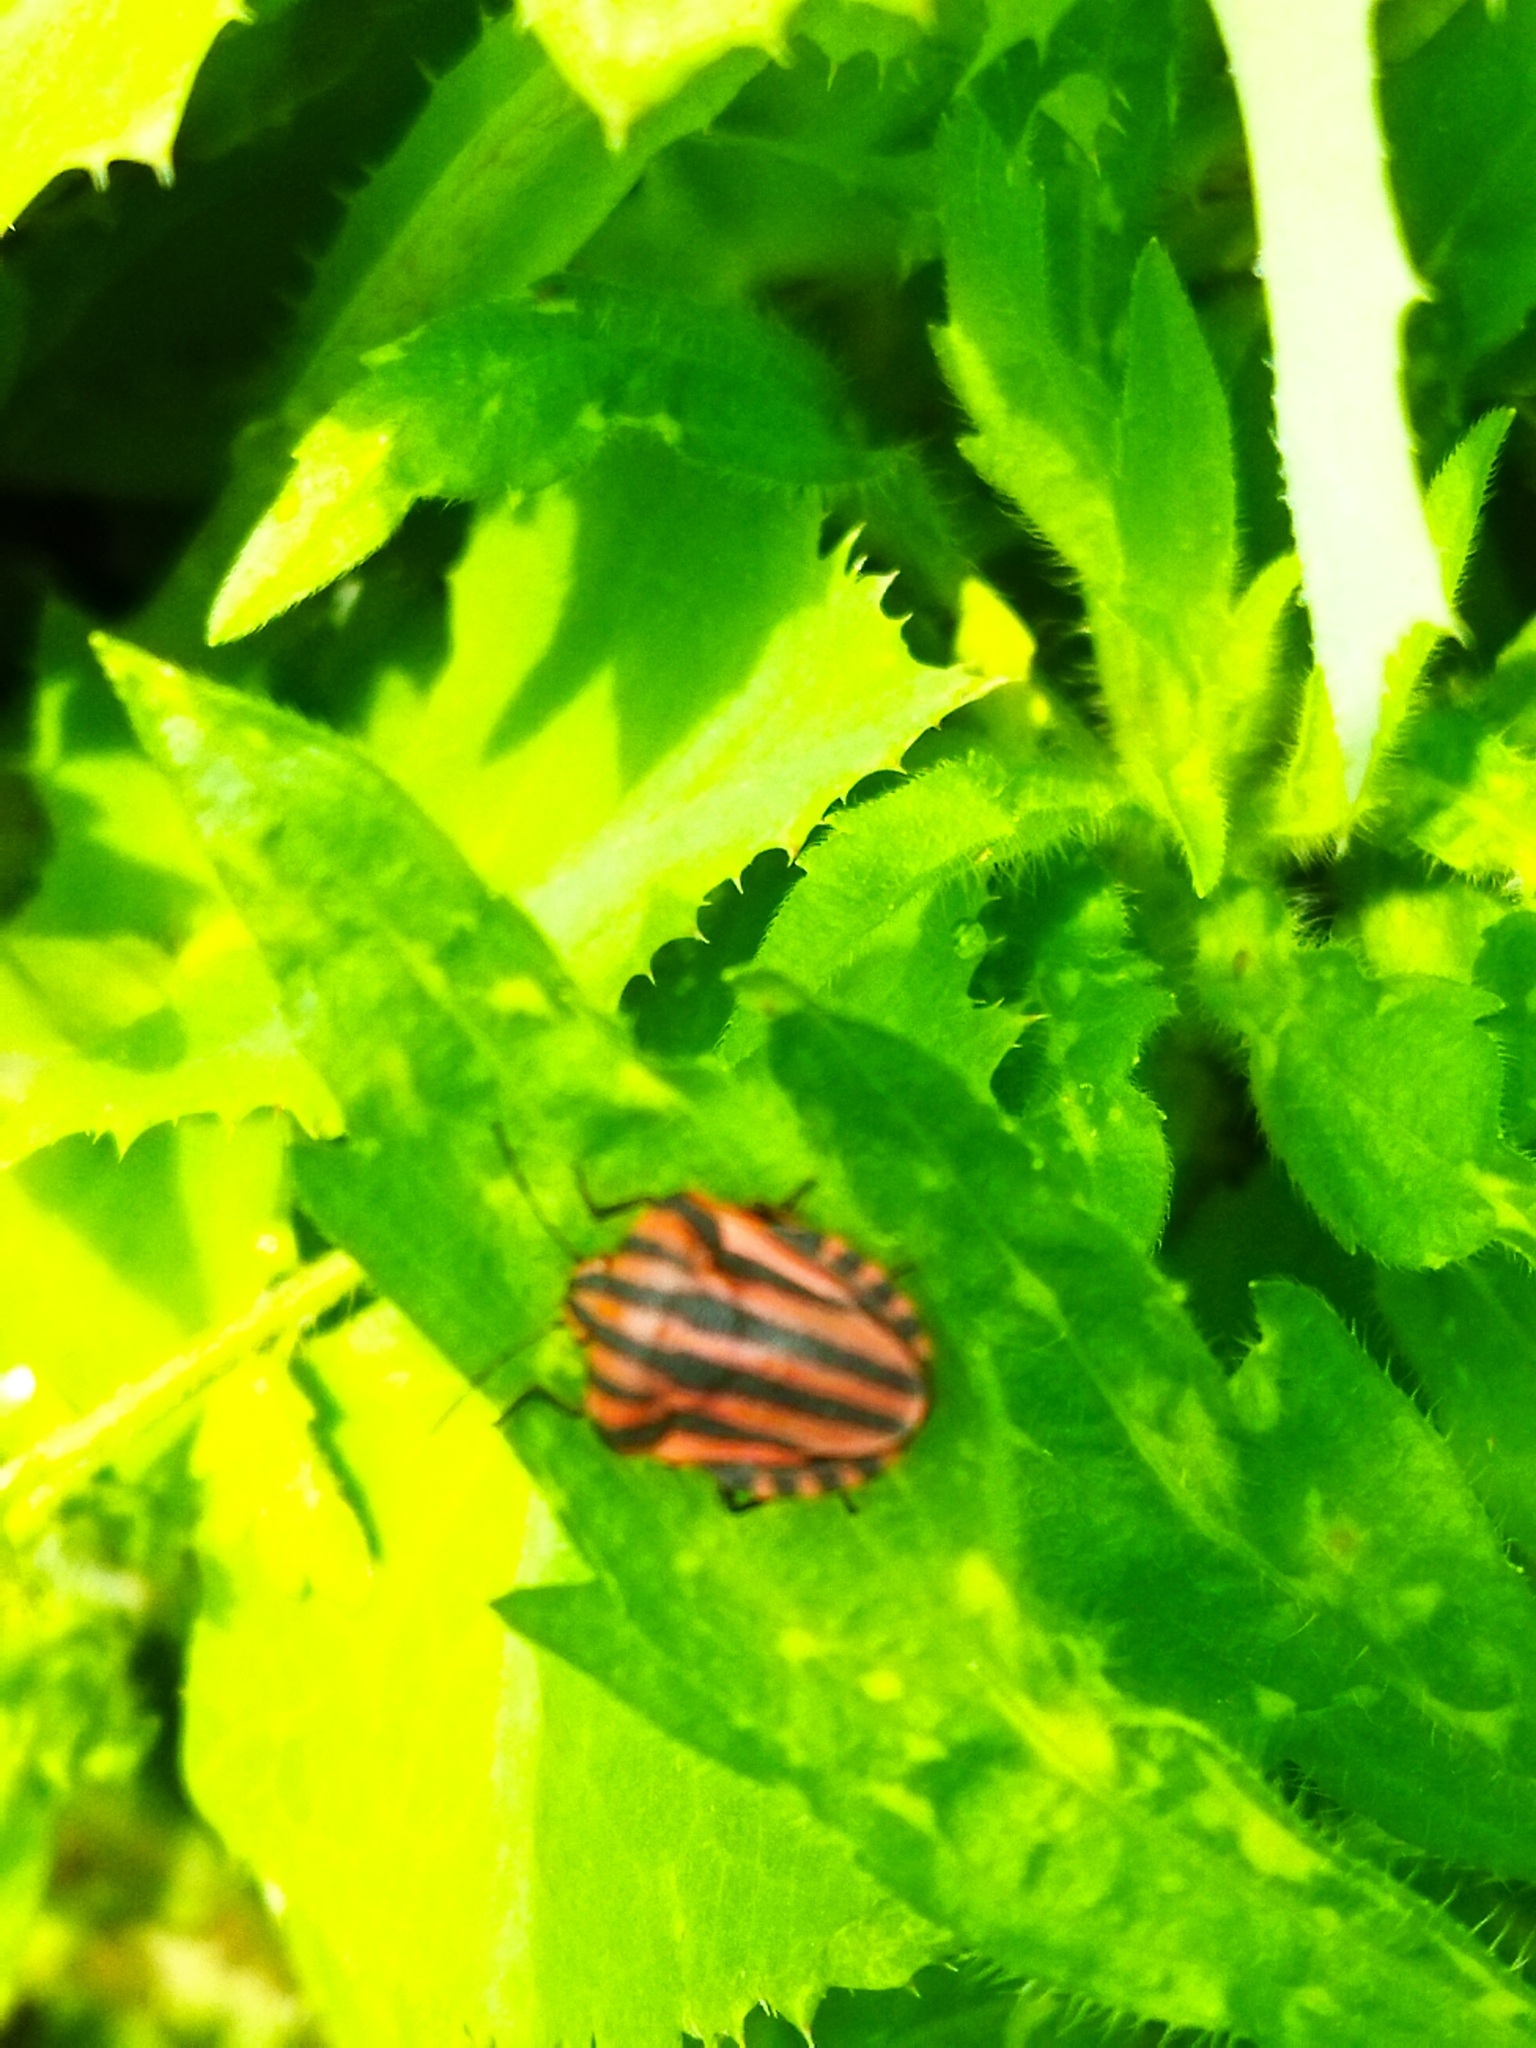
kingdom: Animalia
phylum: Arthropoda
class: Insecta
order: Hemiptera
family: Pentatomidae
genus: Graphosoma
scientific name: Graphosoma italicum
